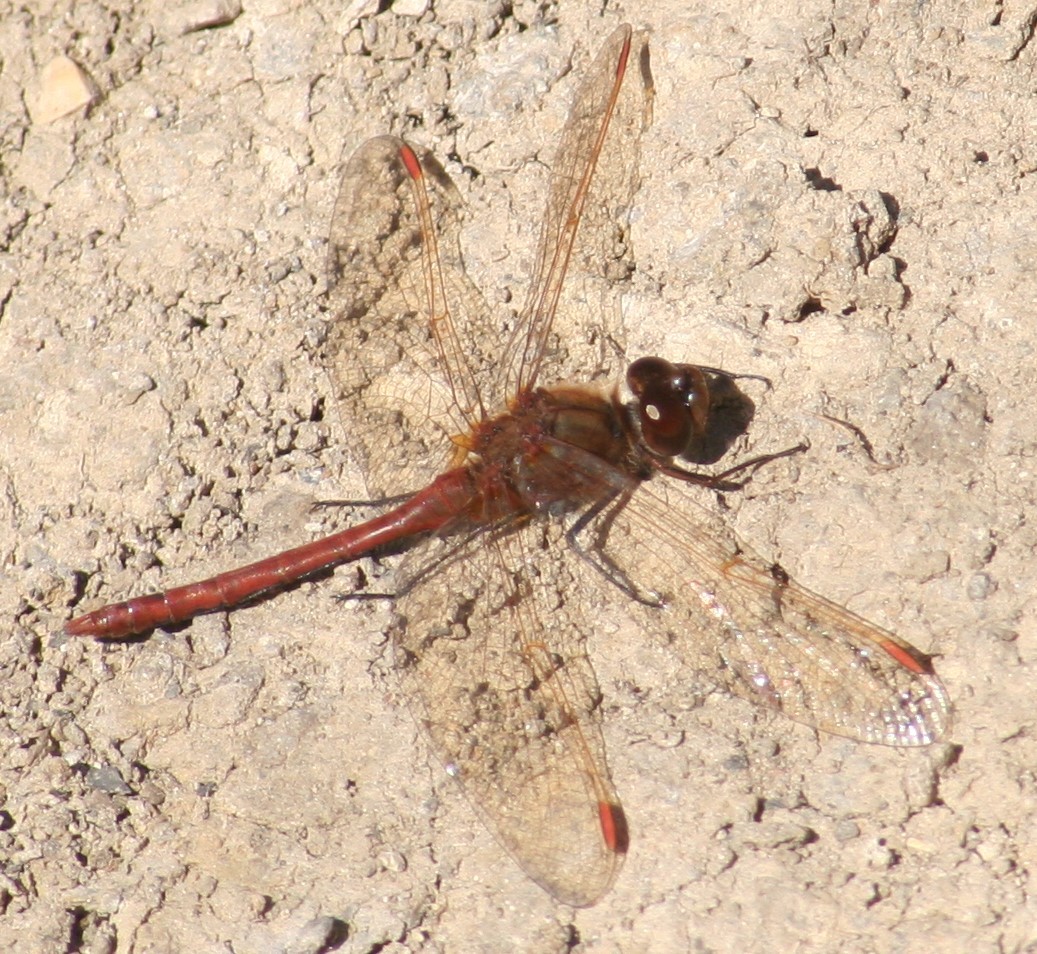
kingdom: Animalia
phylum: Arthropoda
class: Insecta
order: Odonata
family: Libellulidae
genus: Sympetrum
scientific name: Sympetrum costiferum
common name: Saffron-winged meadowhawk
